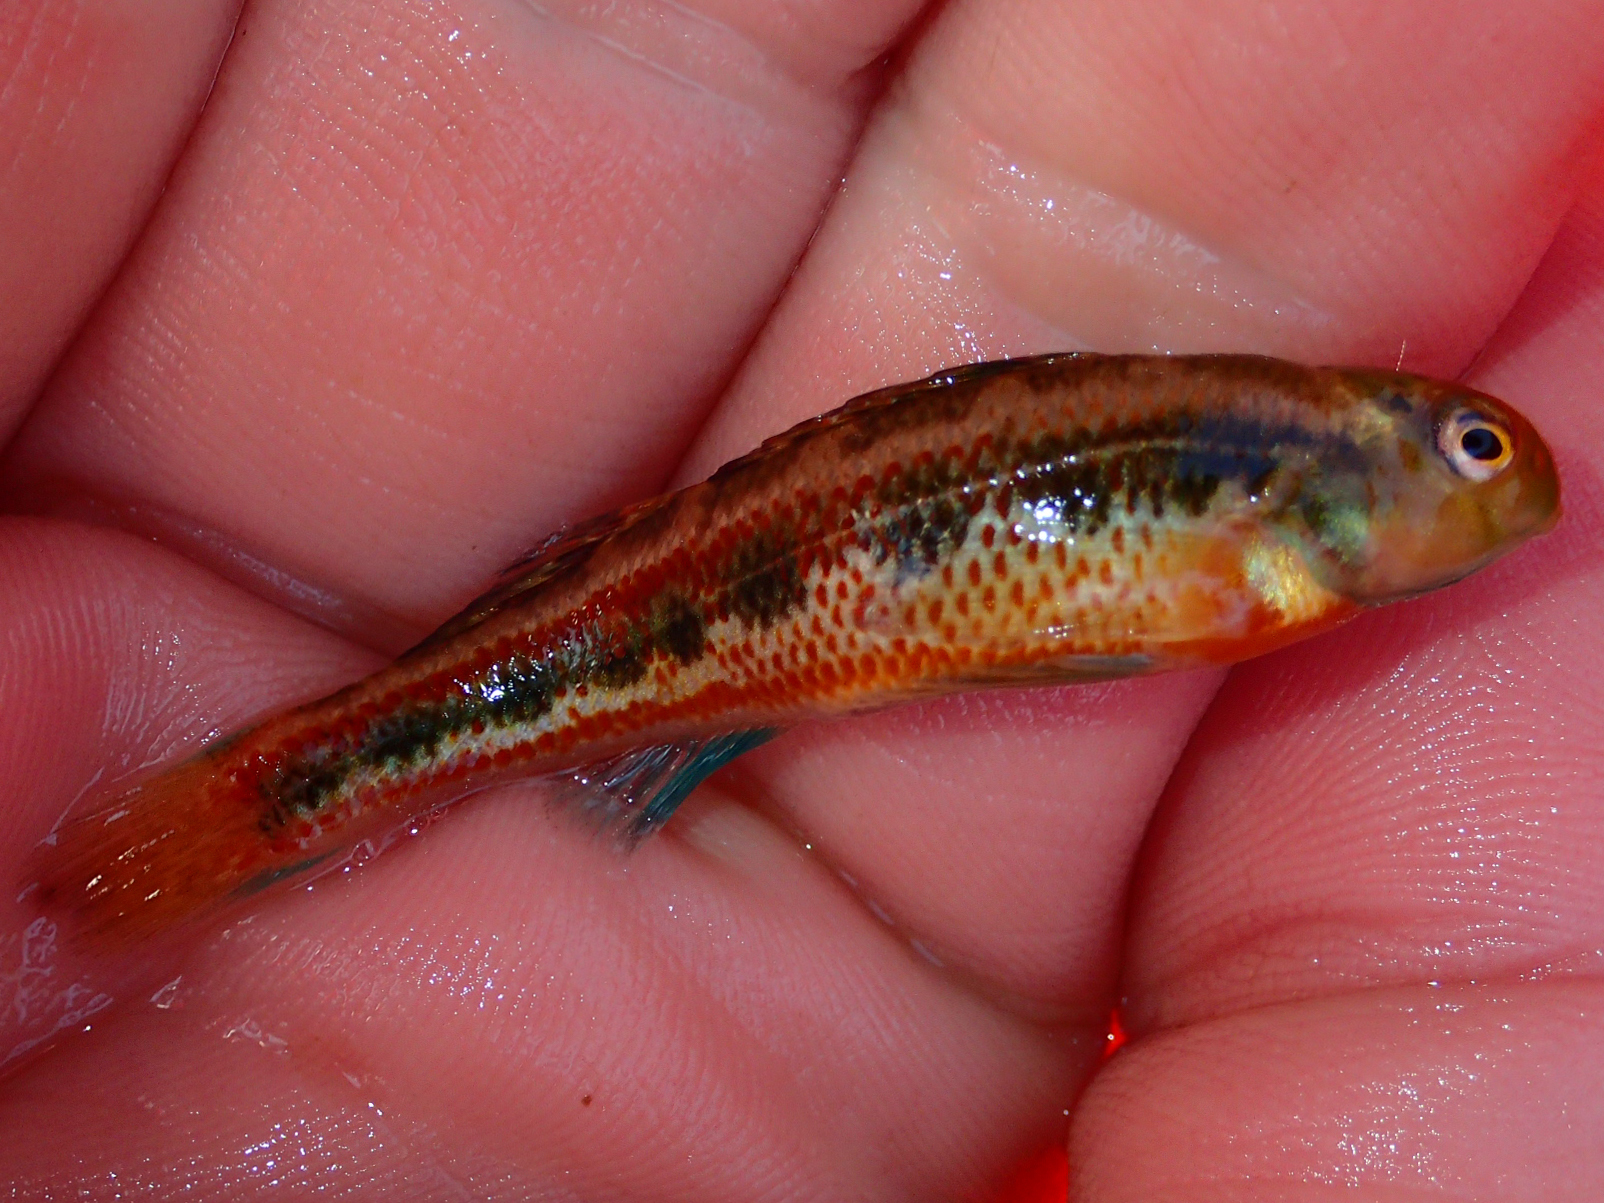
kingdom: Animalia
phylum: Chordata
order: Perciformes
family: Percidae
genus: Etheostoma
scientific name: Etheostoma barrenense
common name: Splendid darter
